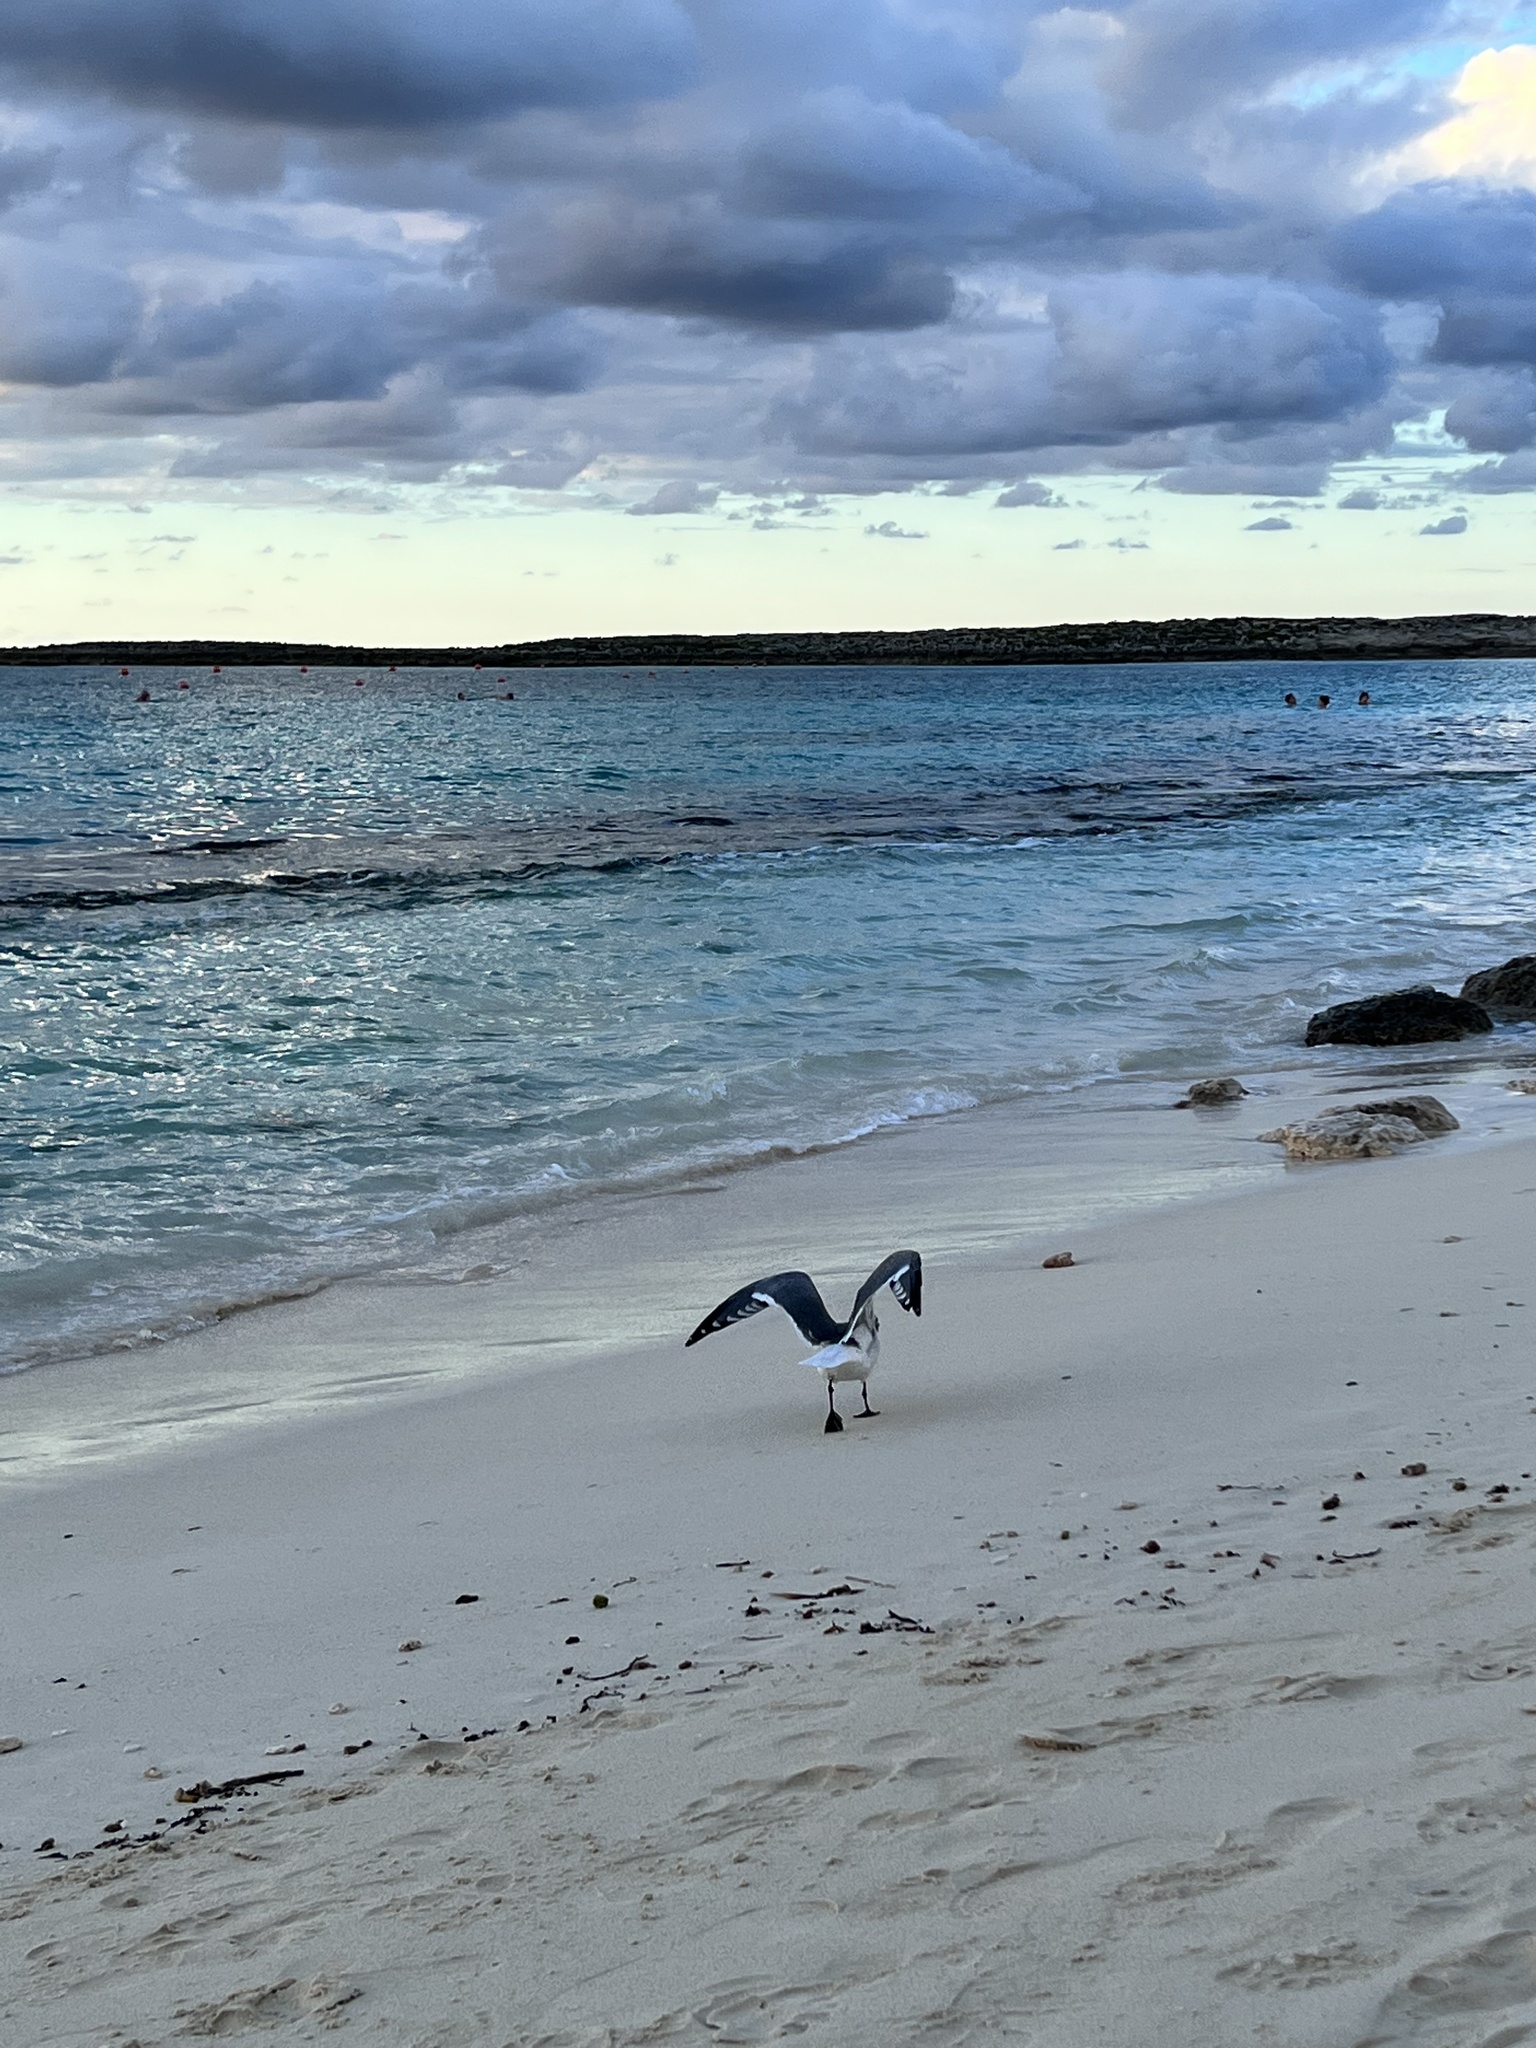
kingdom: Animalia
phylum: Chordata
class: Aves
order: Charadriiformes
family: Laridae
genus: Leucophaeus
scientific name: Leucophaeus atricilla
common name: Laughing gull
